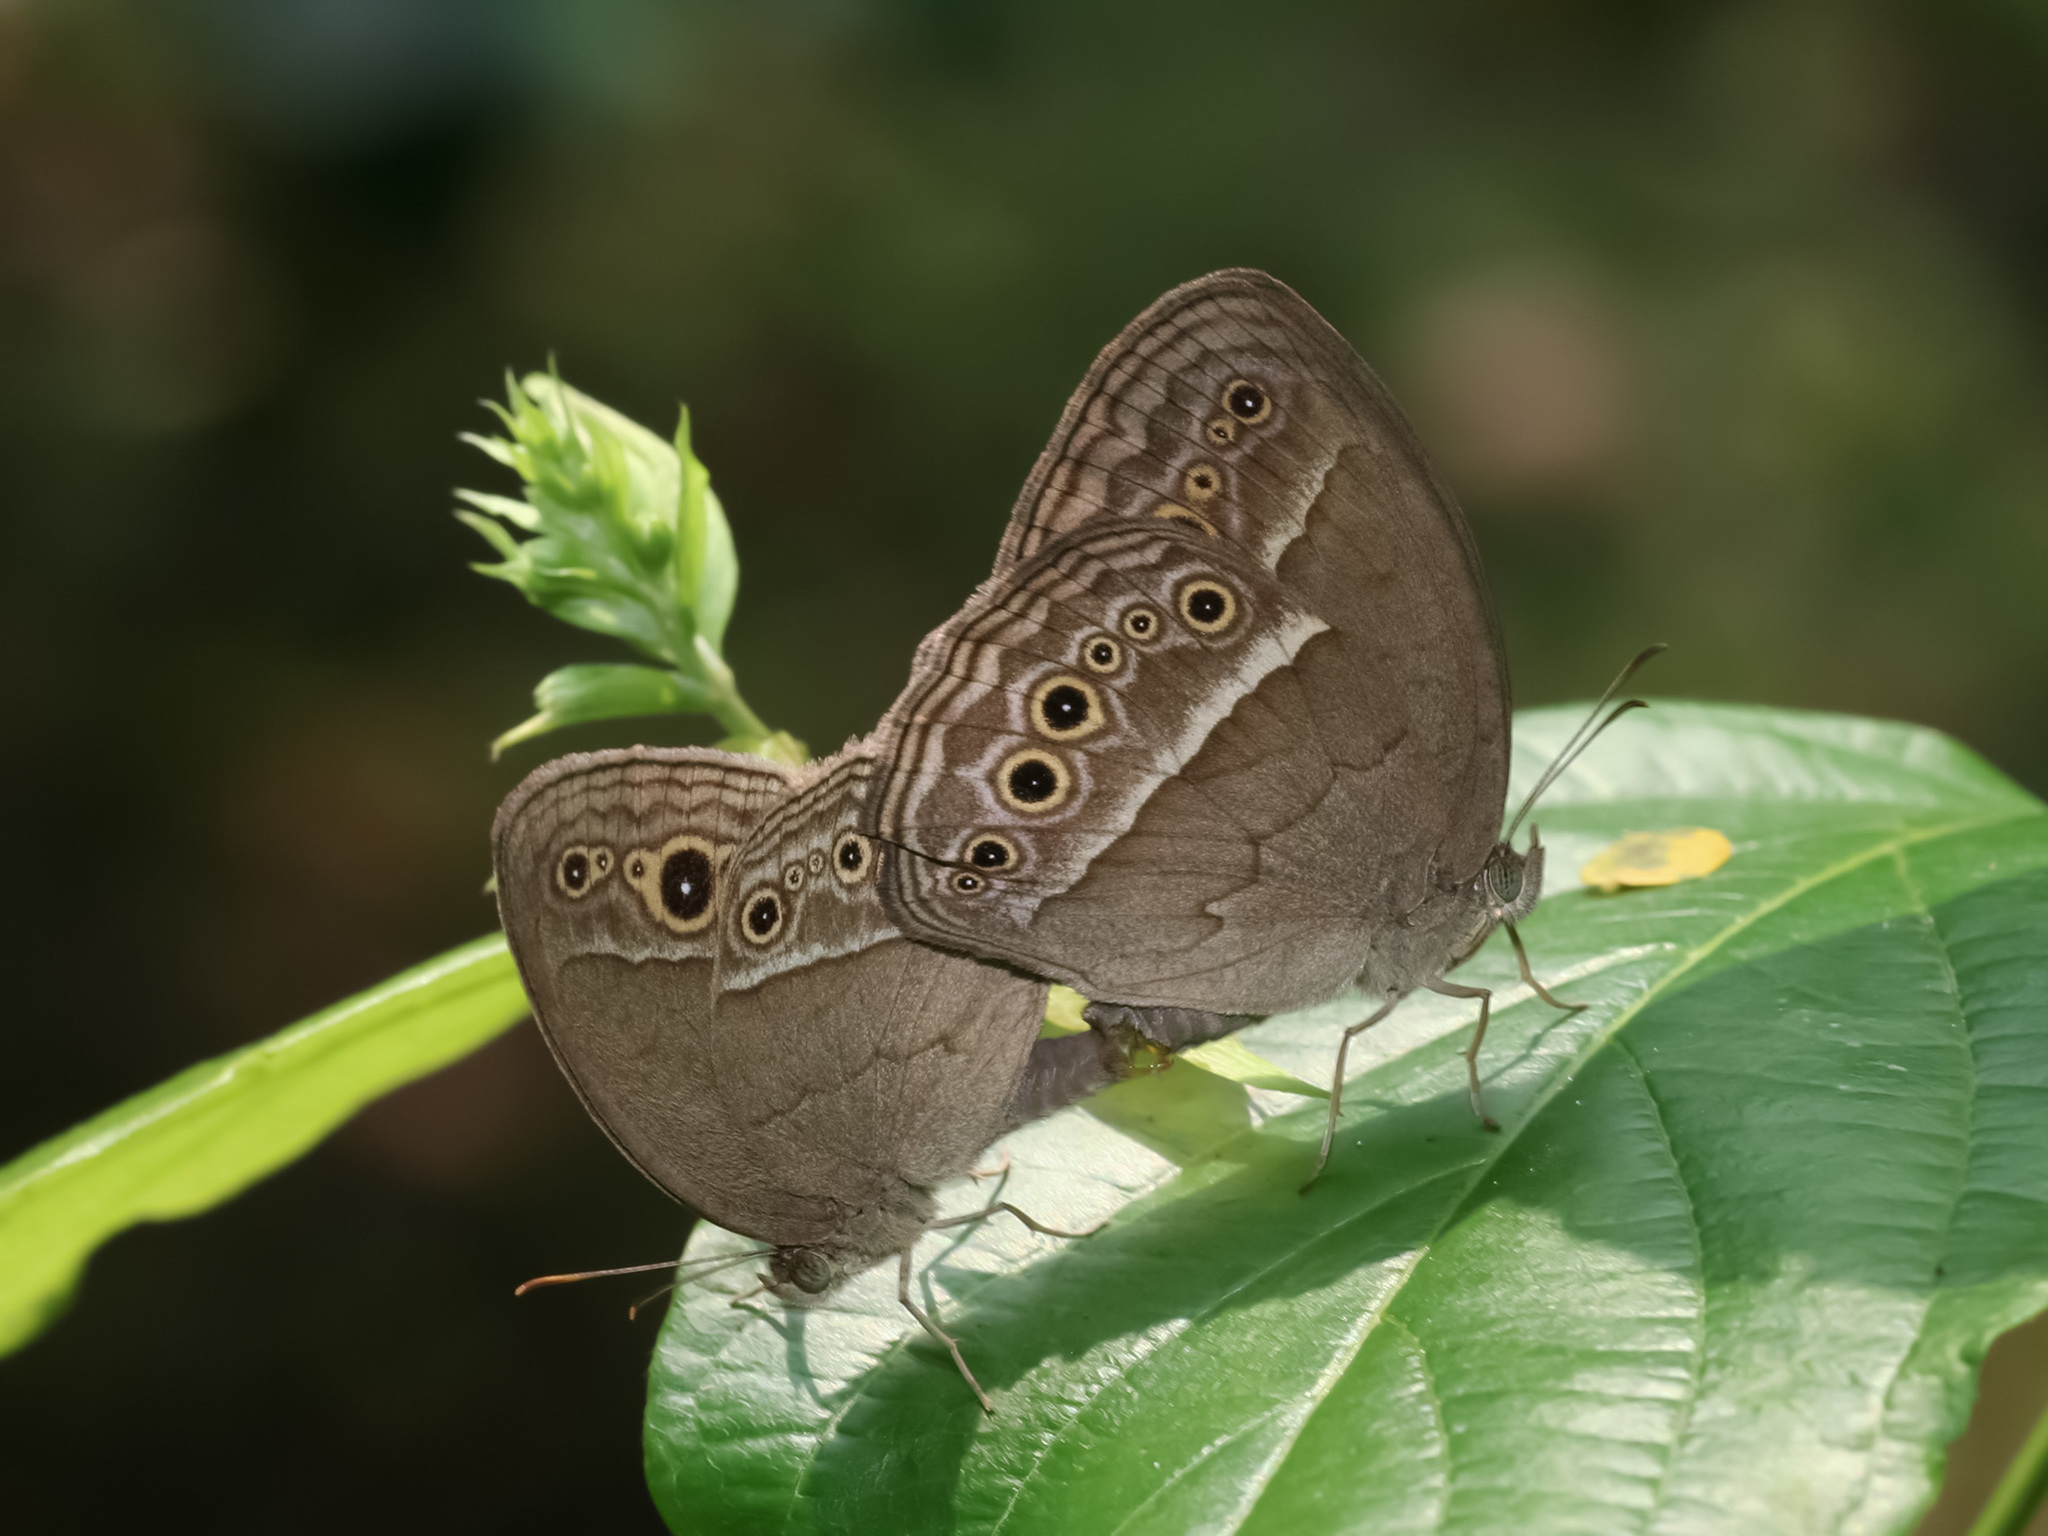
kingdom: Animalia
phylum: Arthropoda
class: Insecta
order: Lepidoptera
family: Nymphalidae
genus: Mycalesis
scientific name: Mycalesis perseoides
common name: Burmese bushbrown
